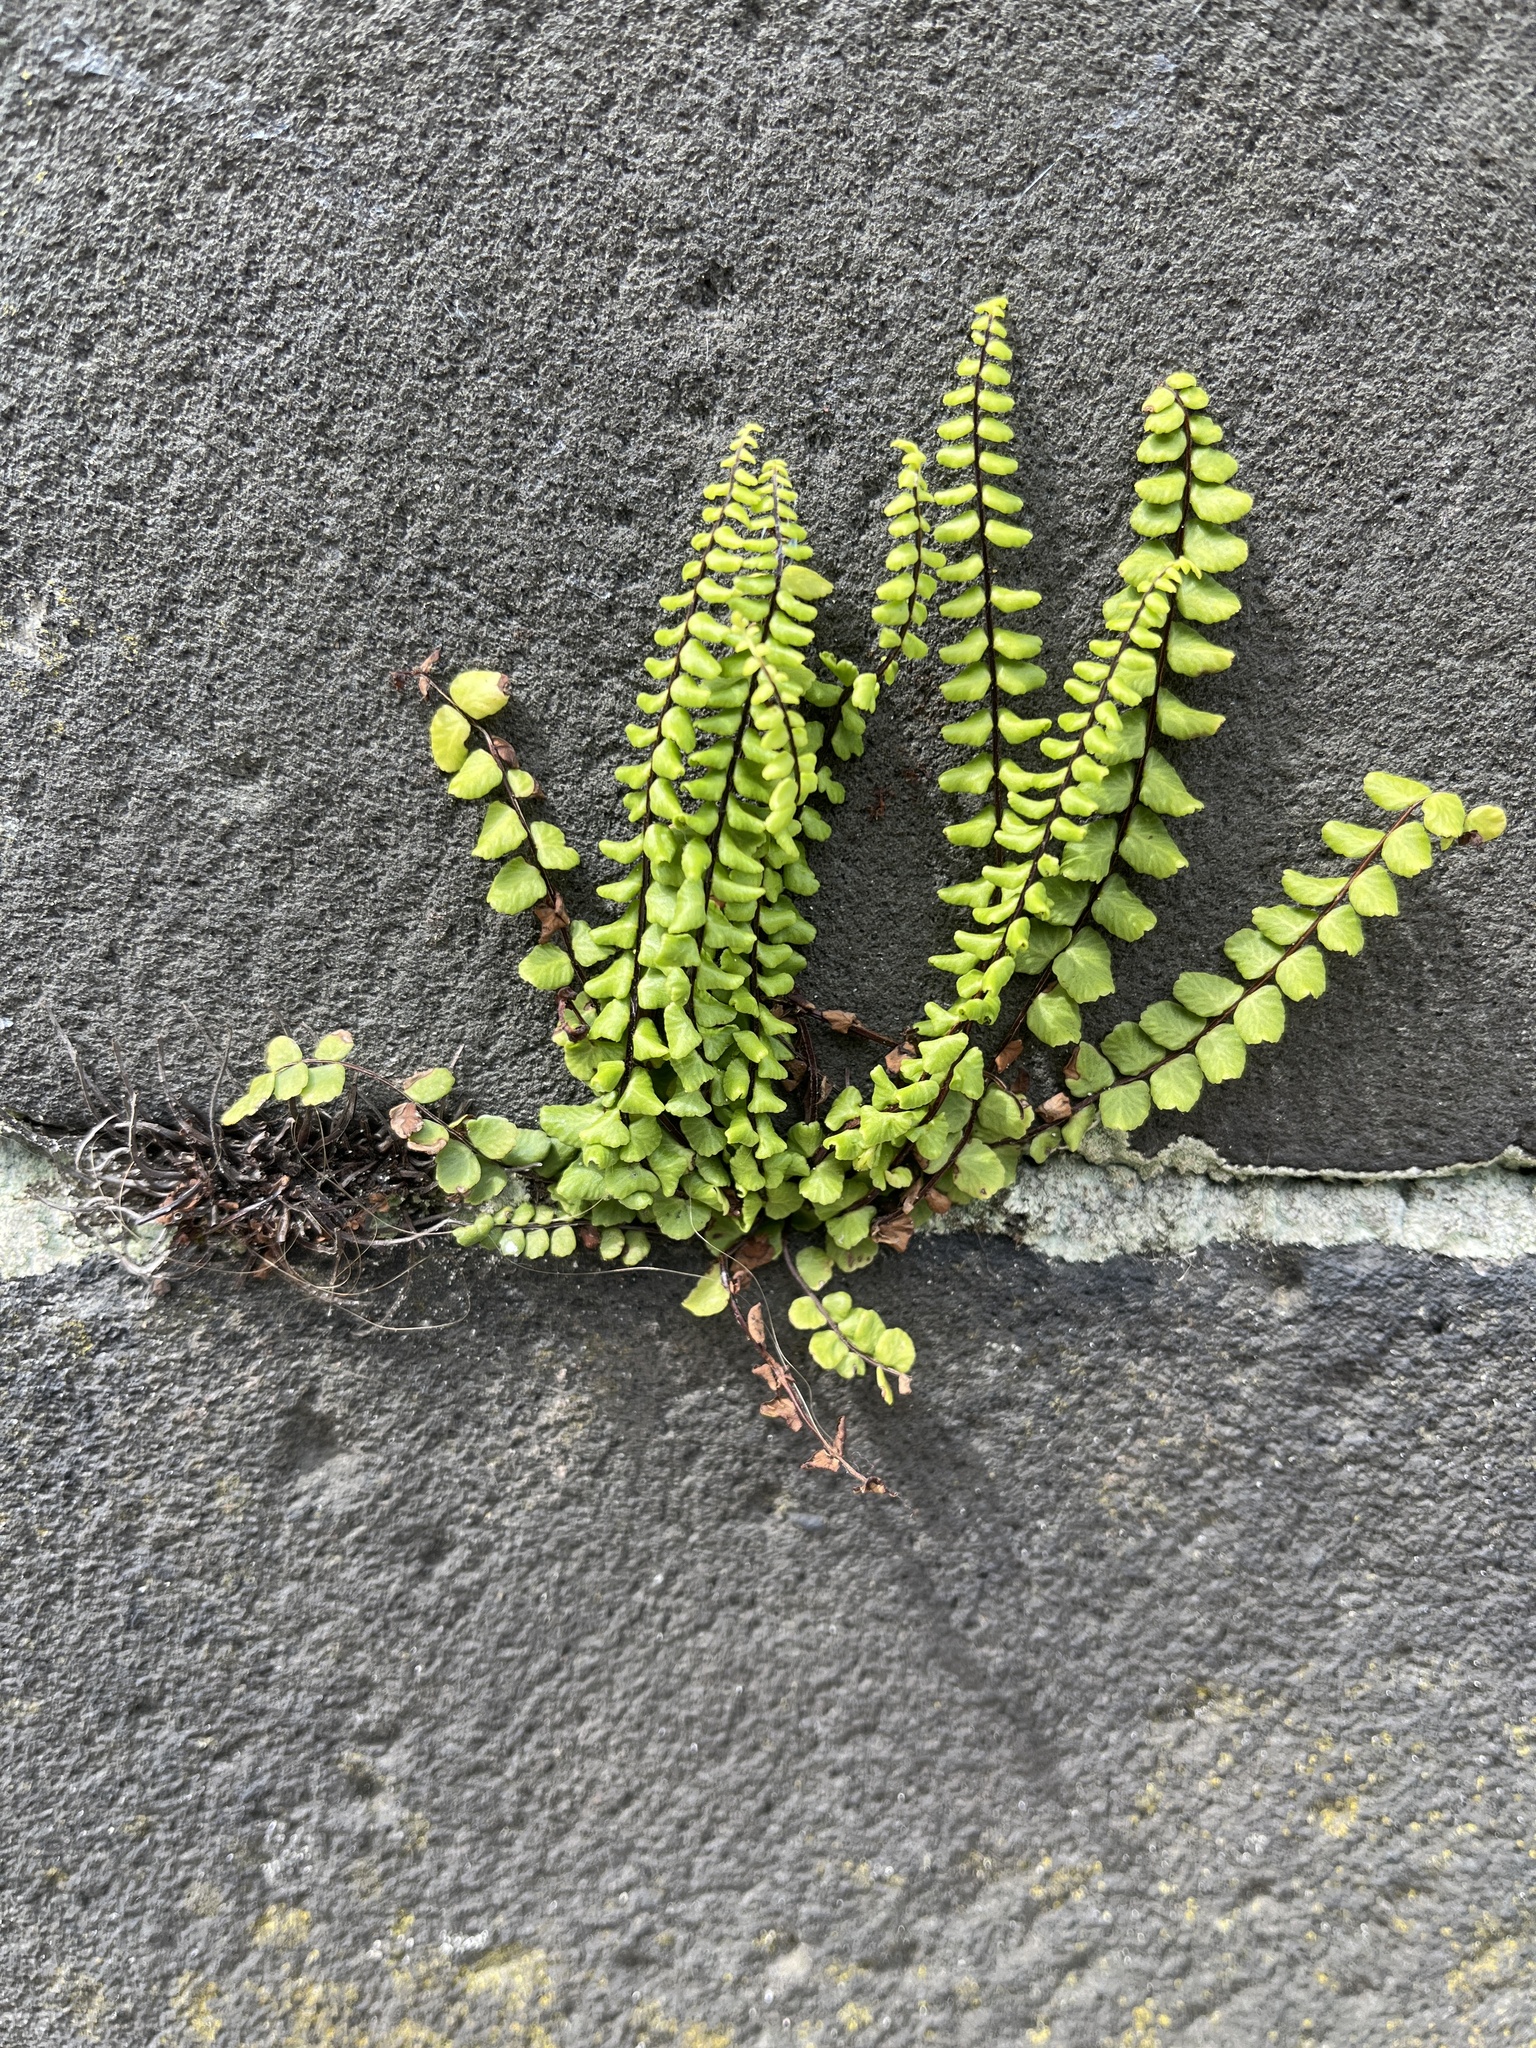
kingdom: Plantae
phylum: Tracheophyta
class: Polypodiopsida
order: Polypodiales
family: Aspleniaceae
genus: Asplenium
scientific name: Asplenium trichomanes
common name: Maidenhair spleenwort
